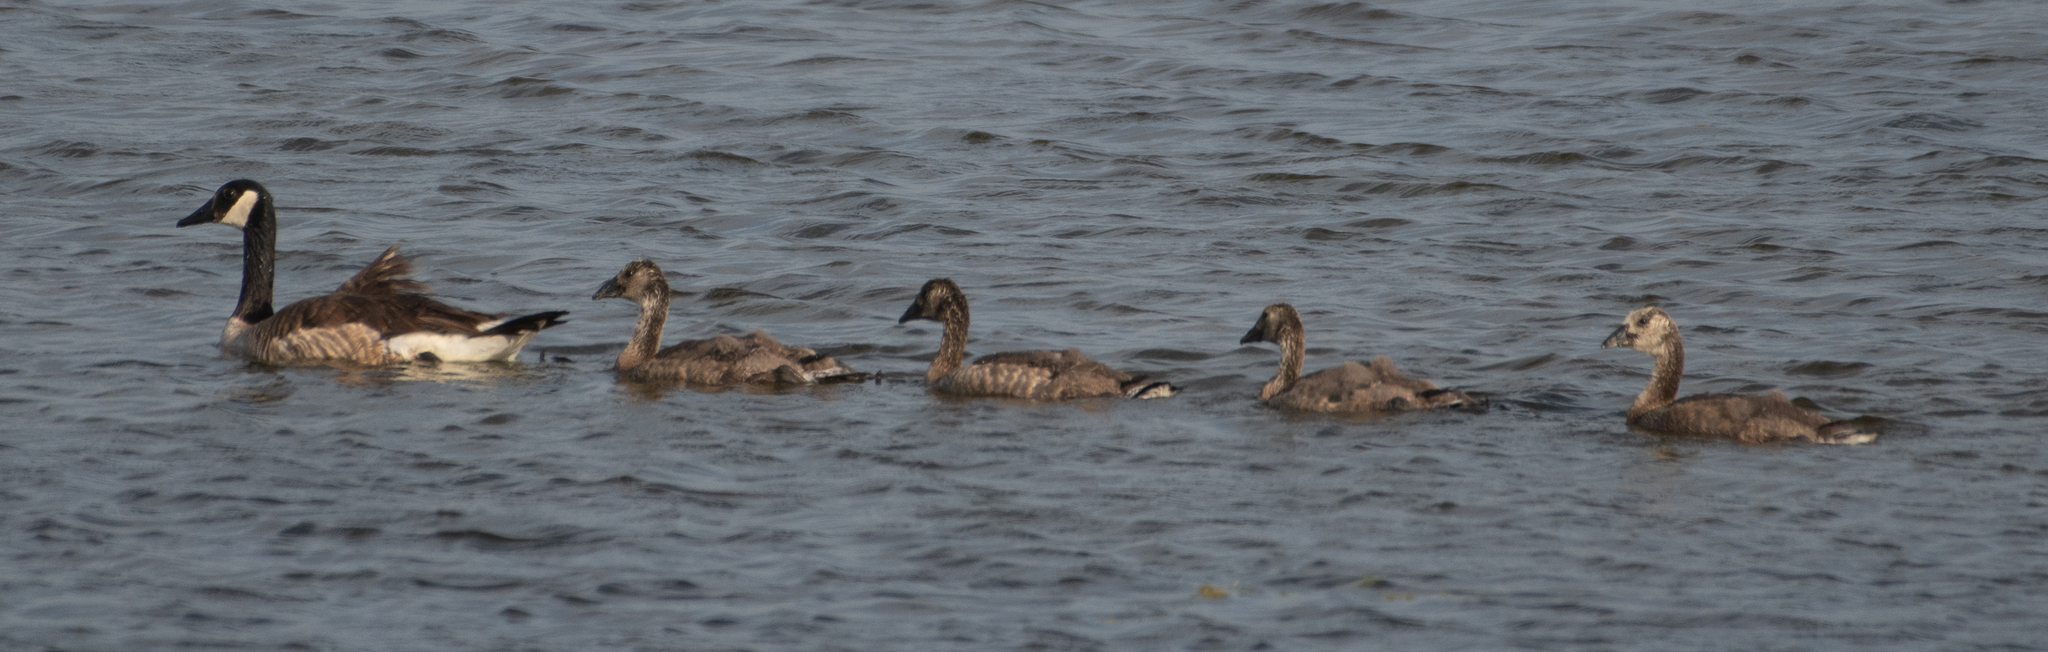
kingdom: Animalia
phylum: Chordata
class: Aves
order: Anseriformes
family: Anatidae
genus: Branta
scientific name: Branta canadensis
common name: Canada goose
